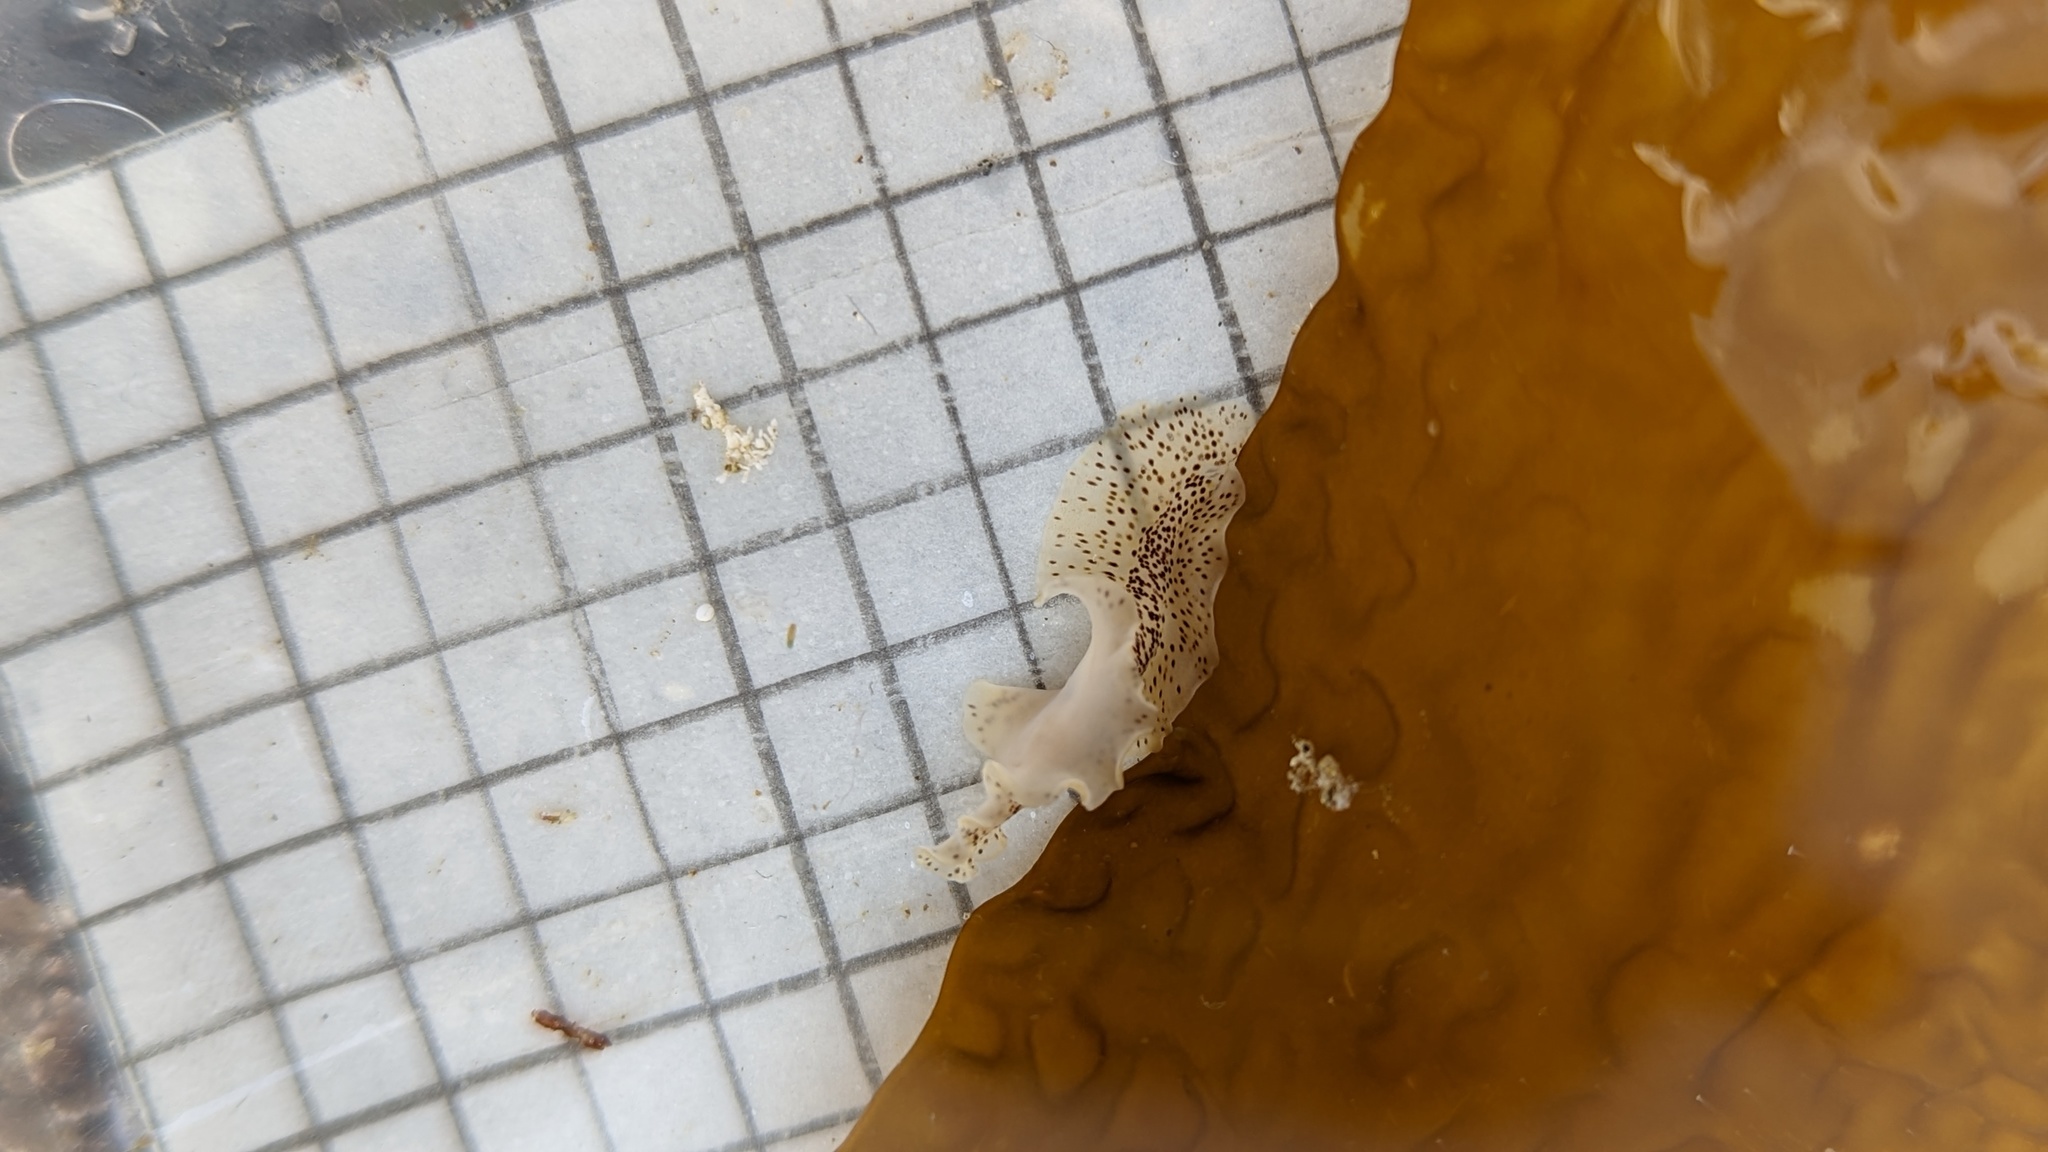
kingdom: Animalia
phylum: Platyhelminthes
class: Turbellaria
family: Prosthiostomidae
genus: Enchiridium
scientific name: Enchiridium punctatum
